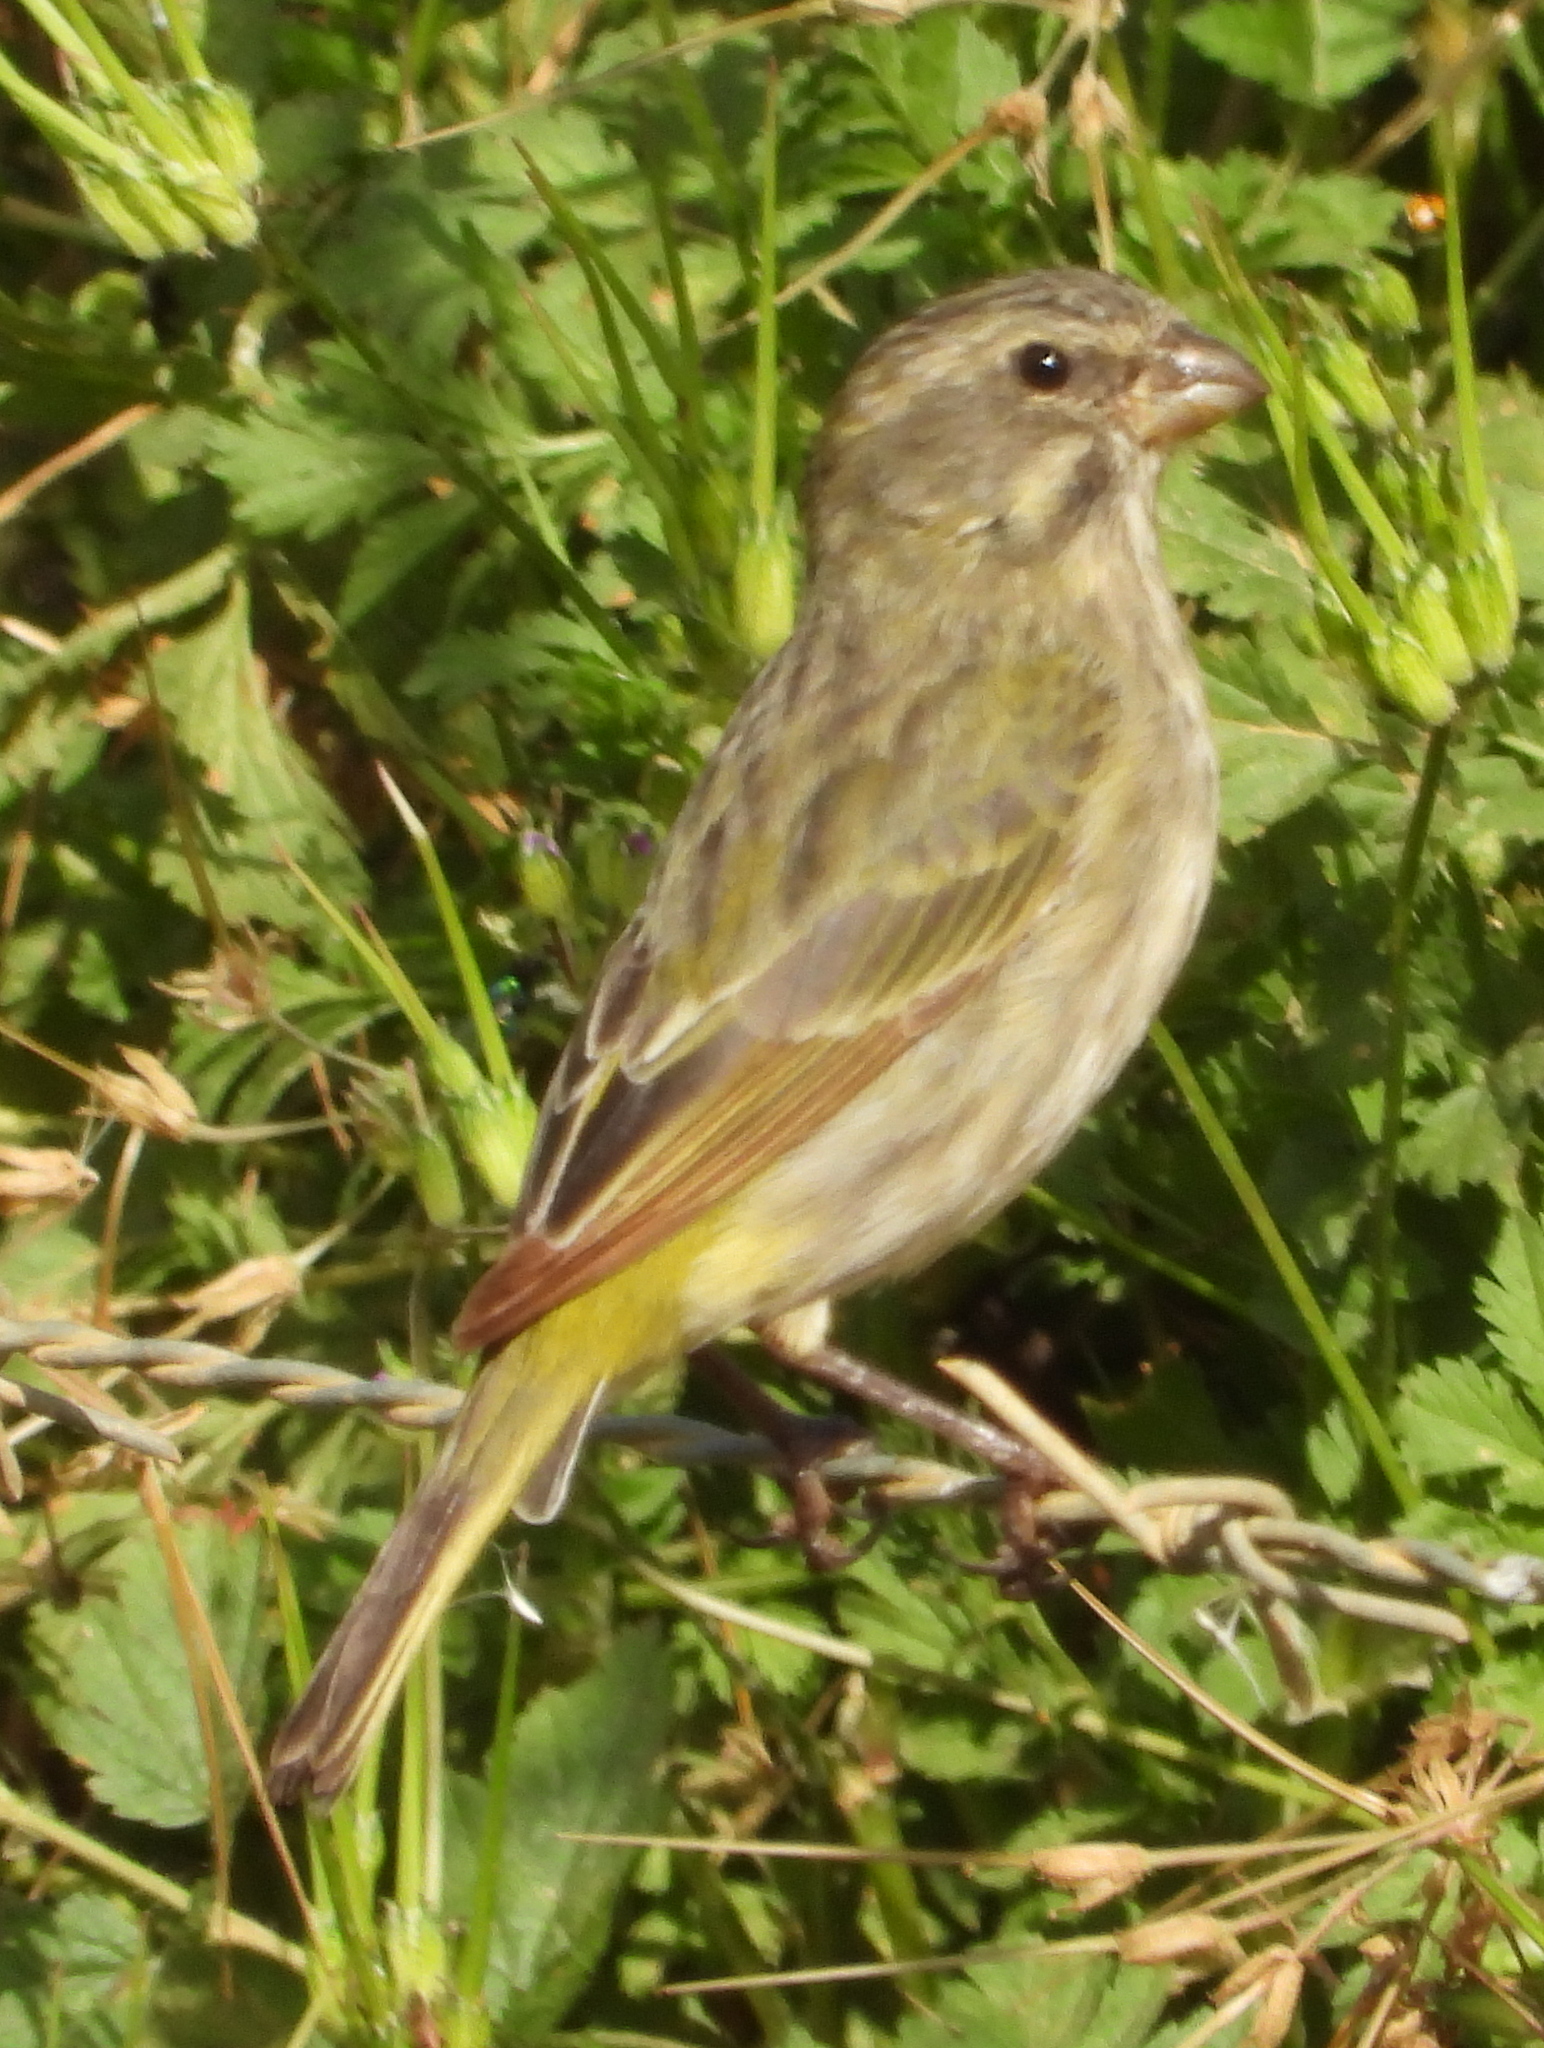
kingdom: Animalia
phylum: Chordata
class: Aves
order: Passeriformes
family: Fringillidae
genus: Crithagra
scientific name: Crithagra flaviventris
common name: Yellow canary
